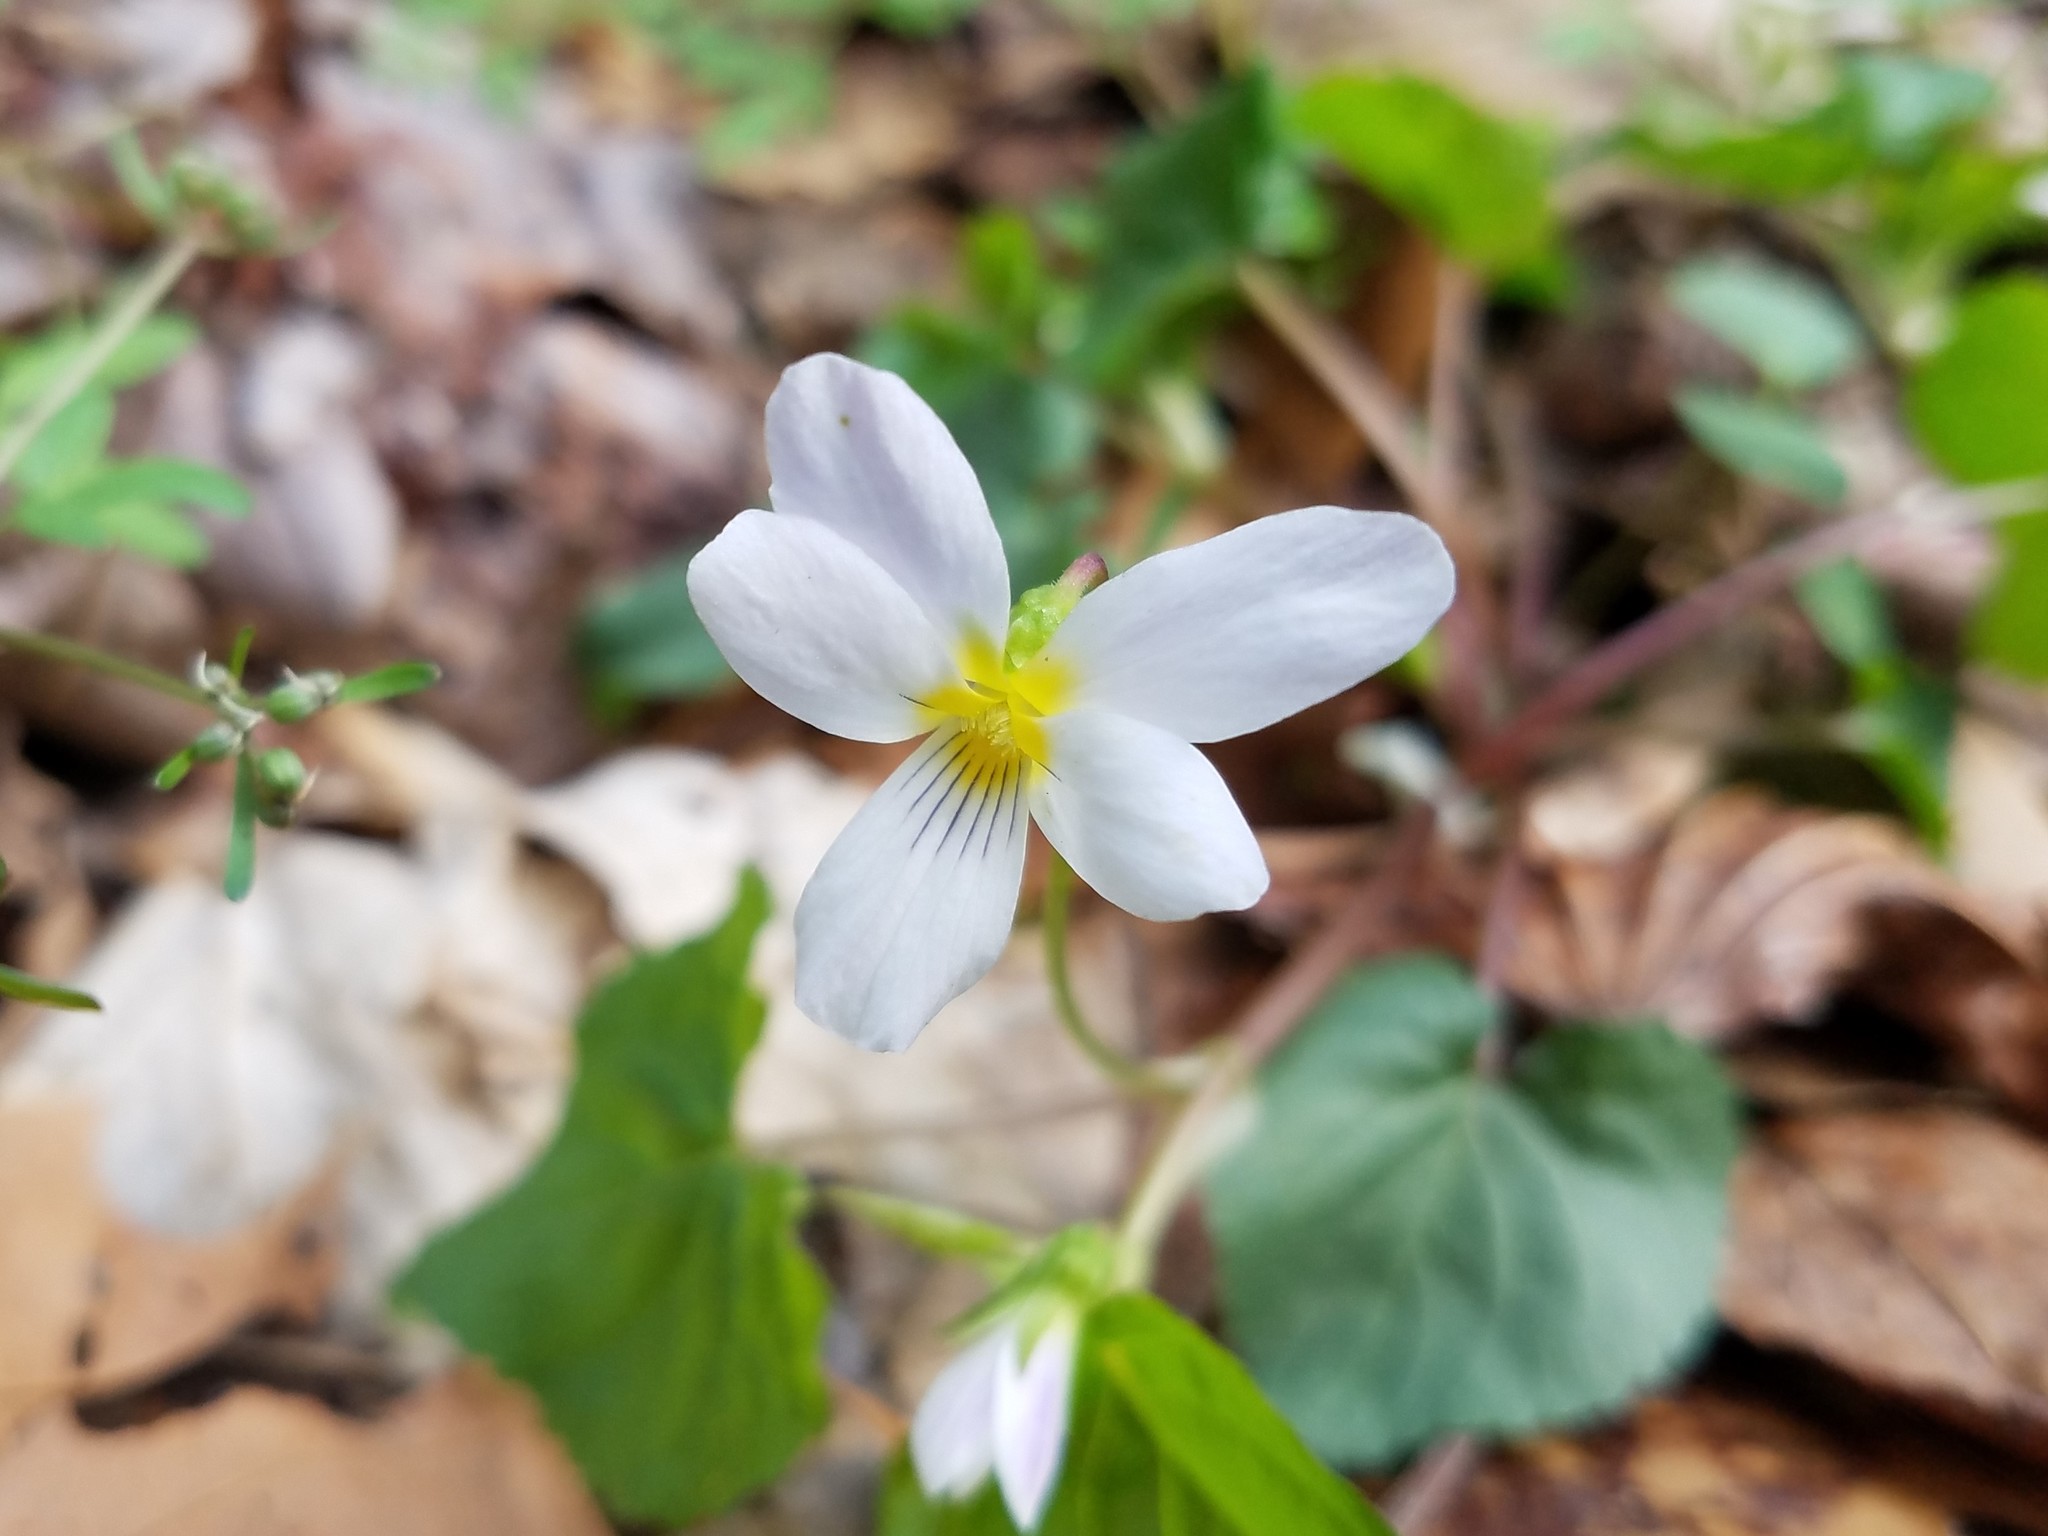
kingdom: Plantae
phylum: Tracheophyta
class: Magnoliopsida
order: Malpighiales
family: Violaceae
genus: Viola
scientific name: Viola canadensis
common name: Canada violet
